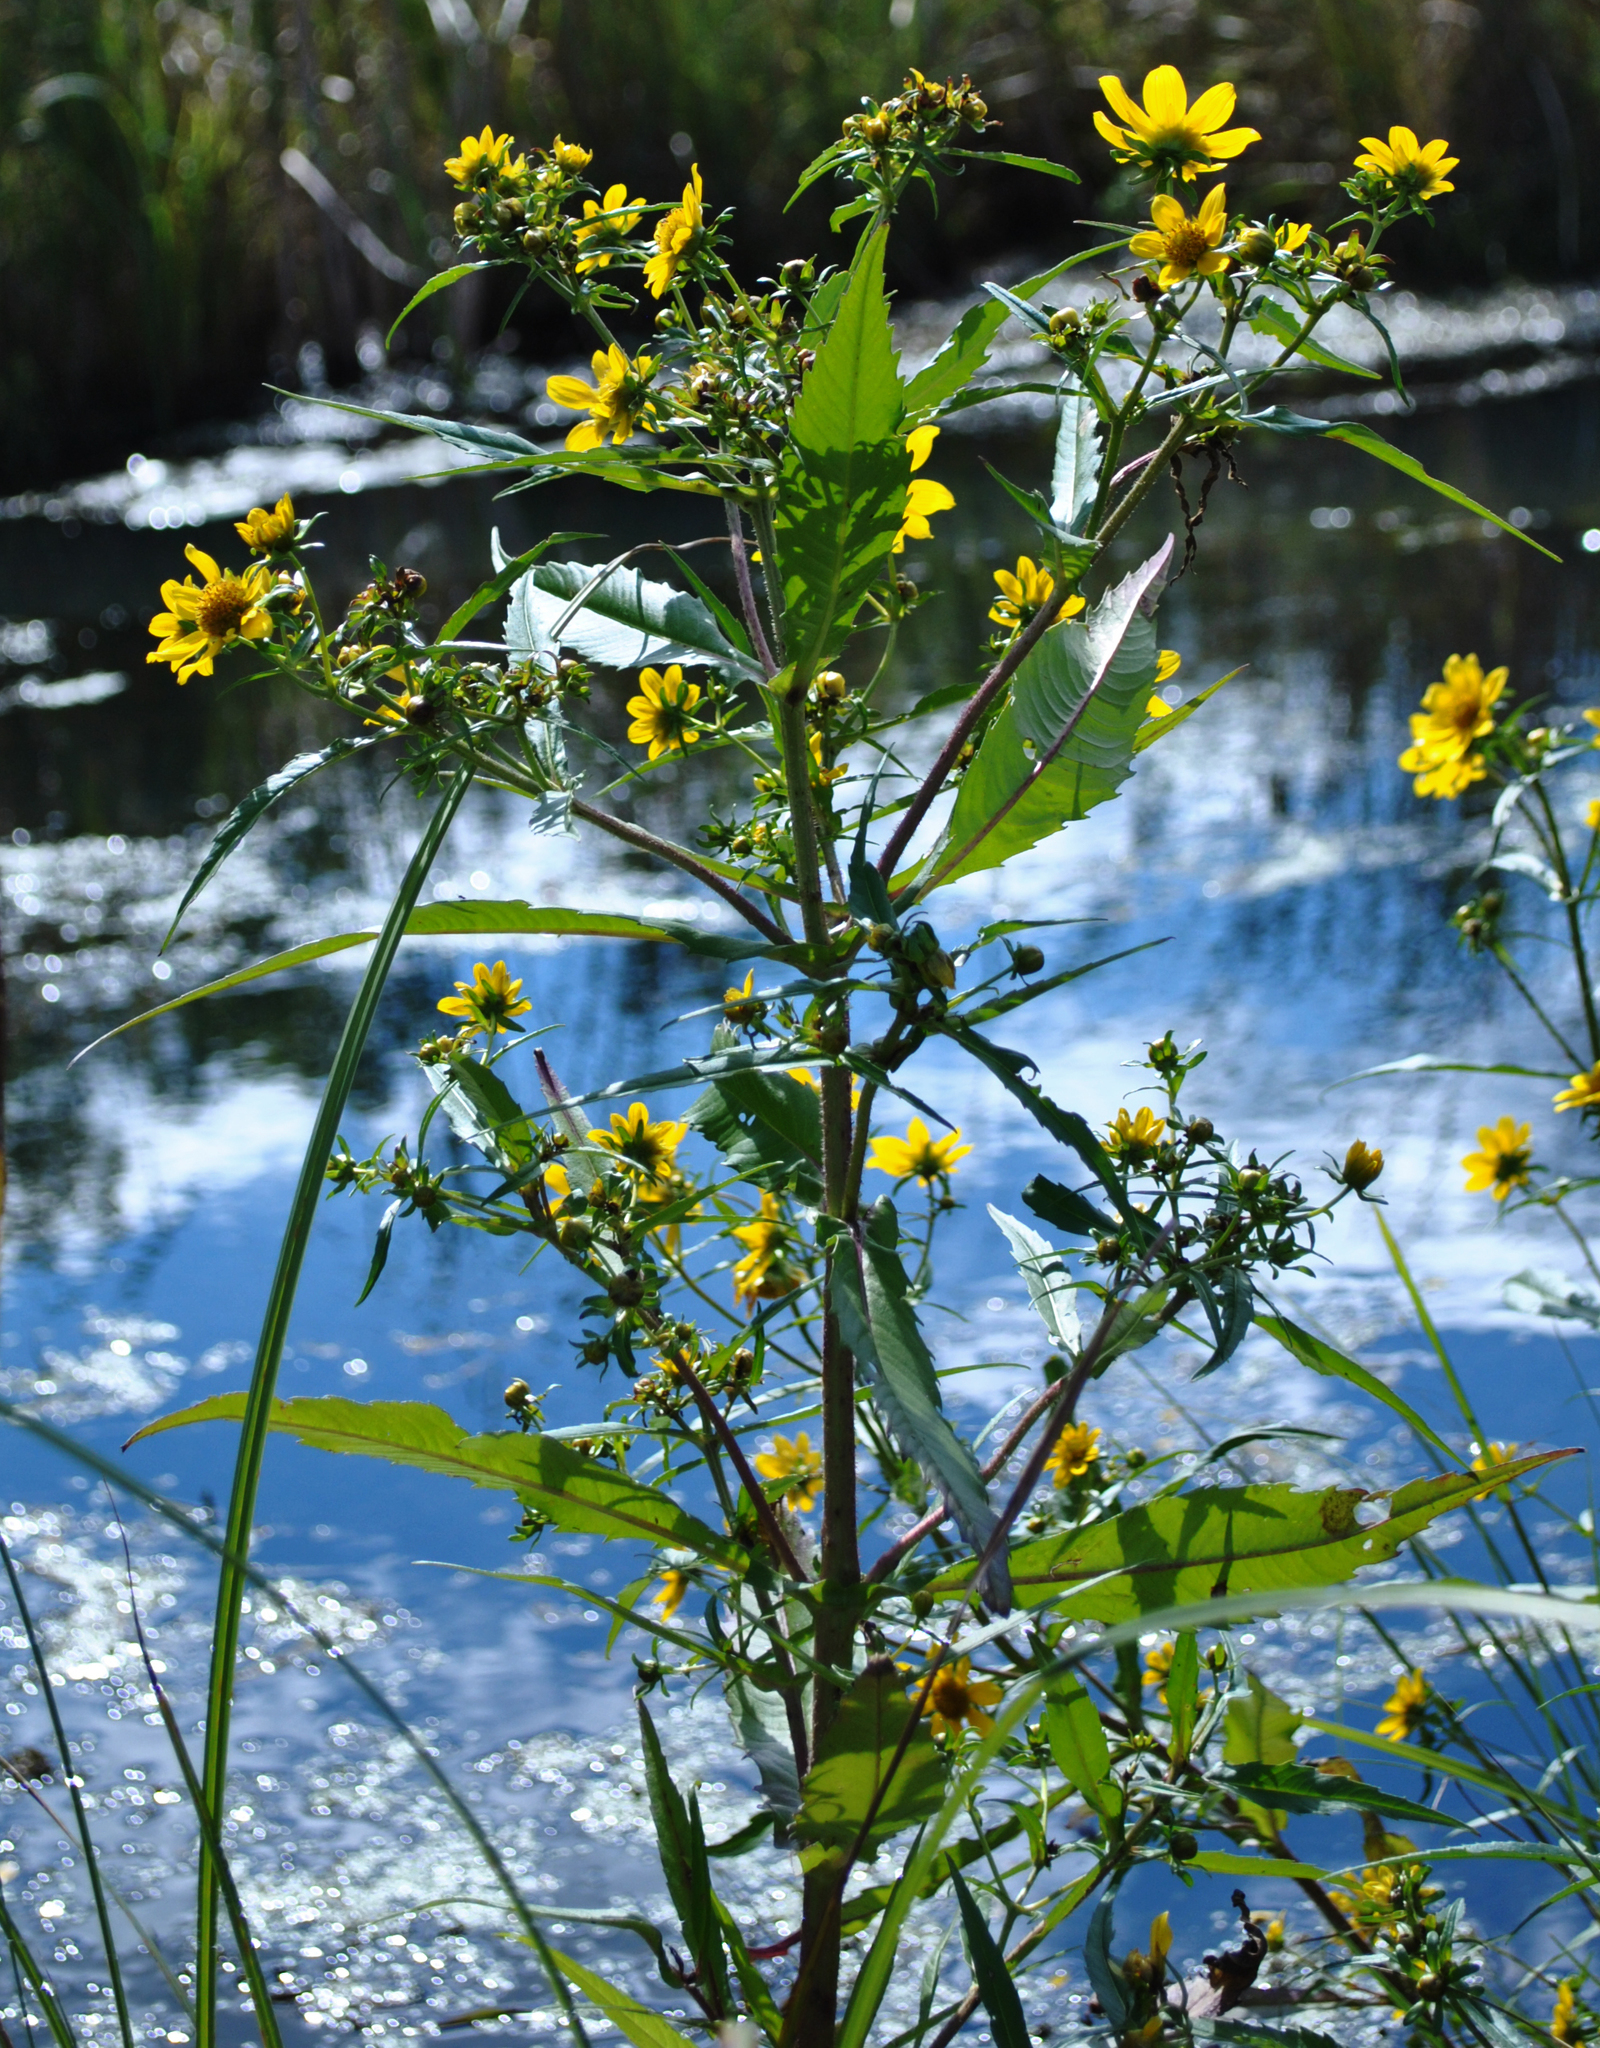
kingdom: Plantae
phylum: Tracheophyta
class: Magnoliopsida
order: Asterales
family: Asteraceae
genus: Bidens
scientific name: Bidens cernua
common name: Nodding bur-marigold
